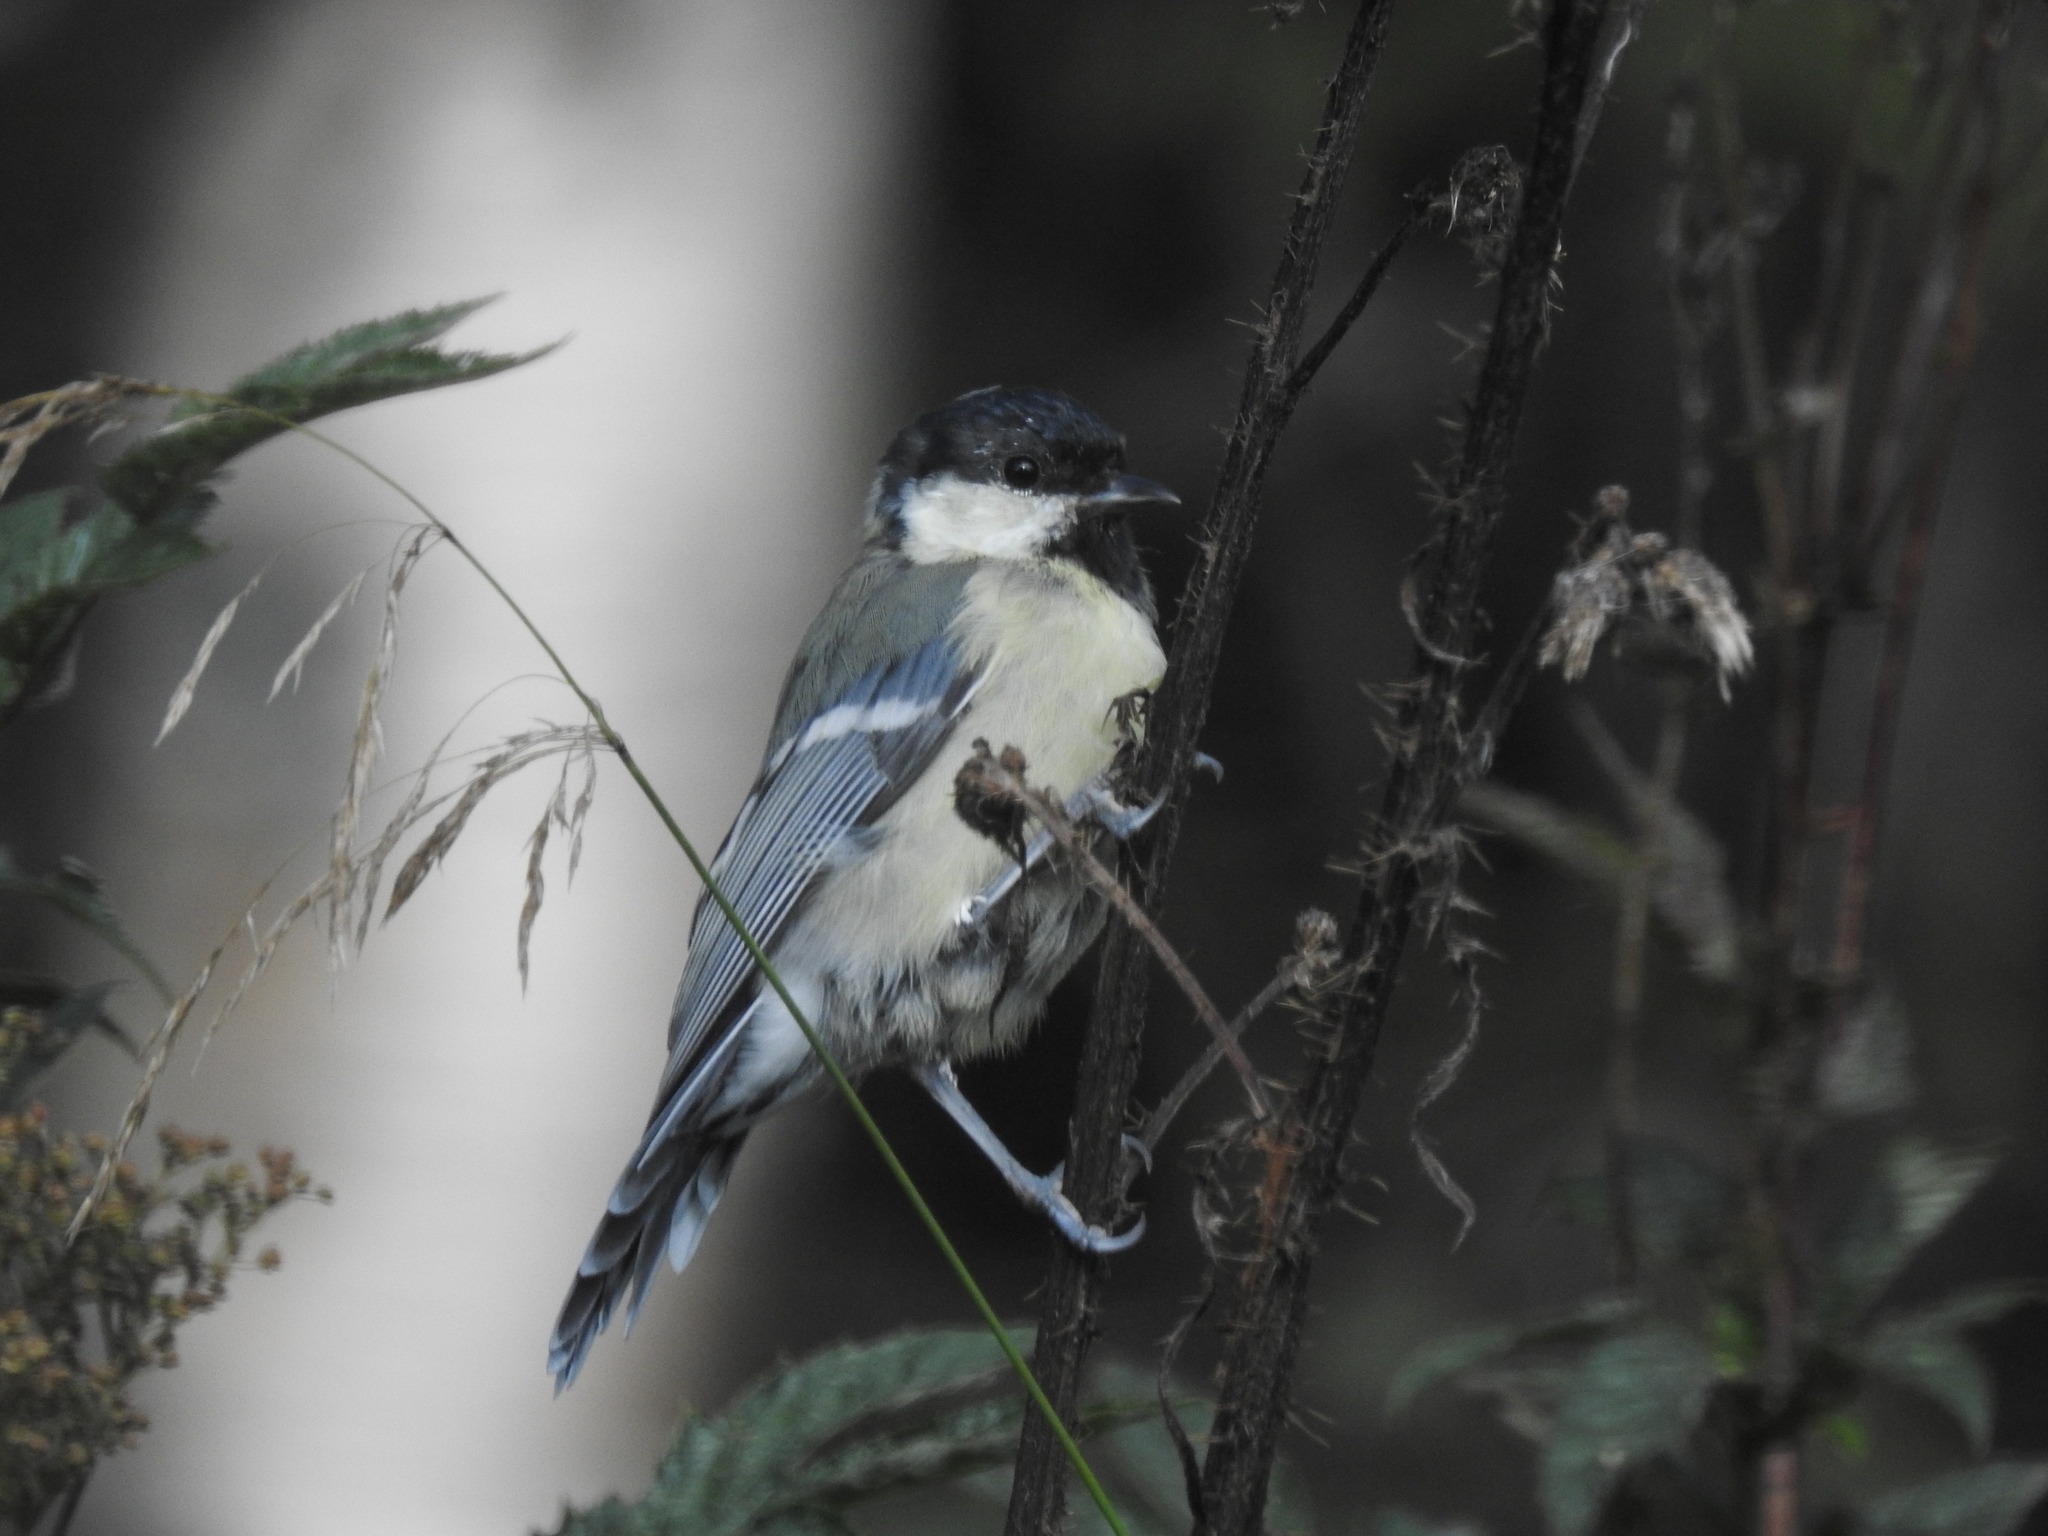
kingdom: Animalia
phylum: Chordata
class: Aves
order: Passeriformes
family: Paridae
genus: Parus
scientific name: Parus major
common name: Great tit
